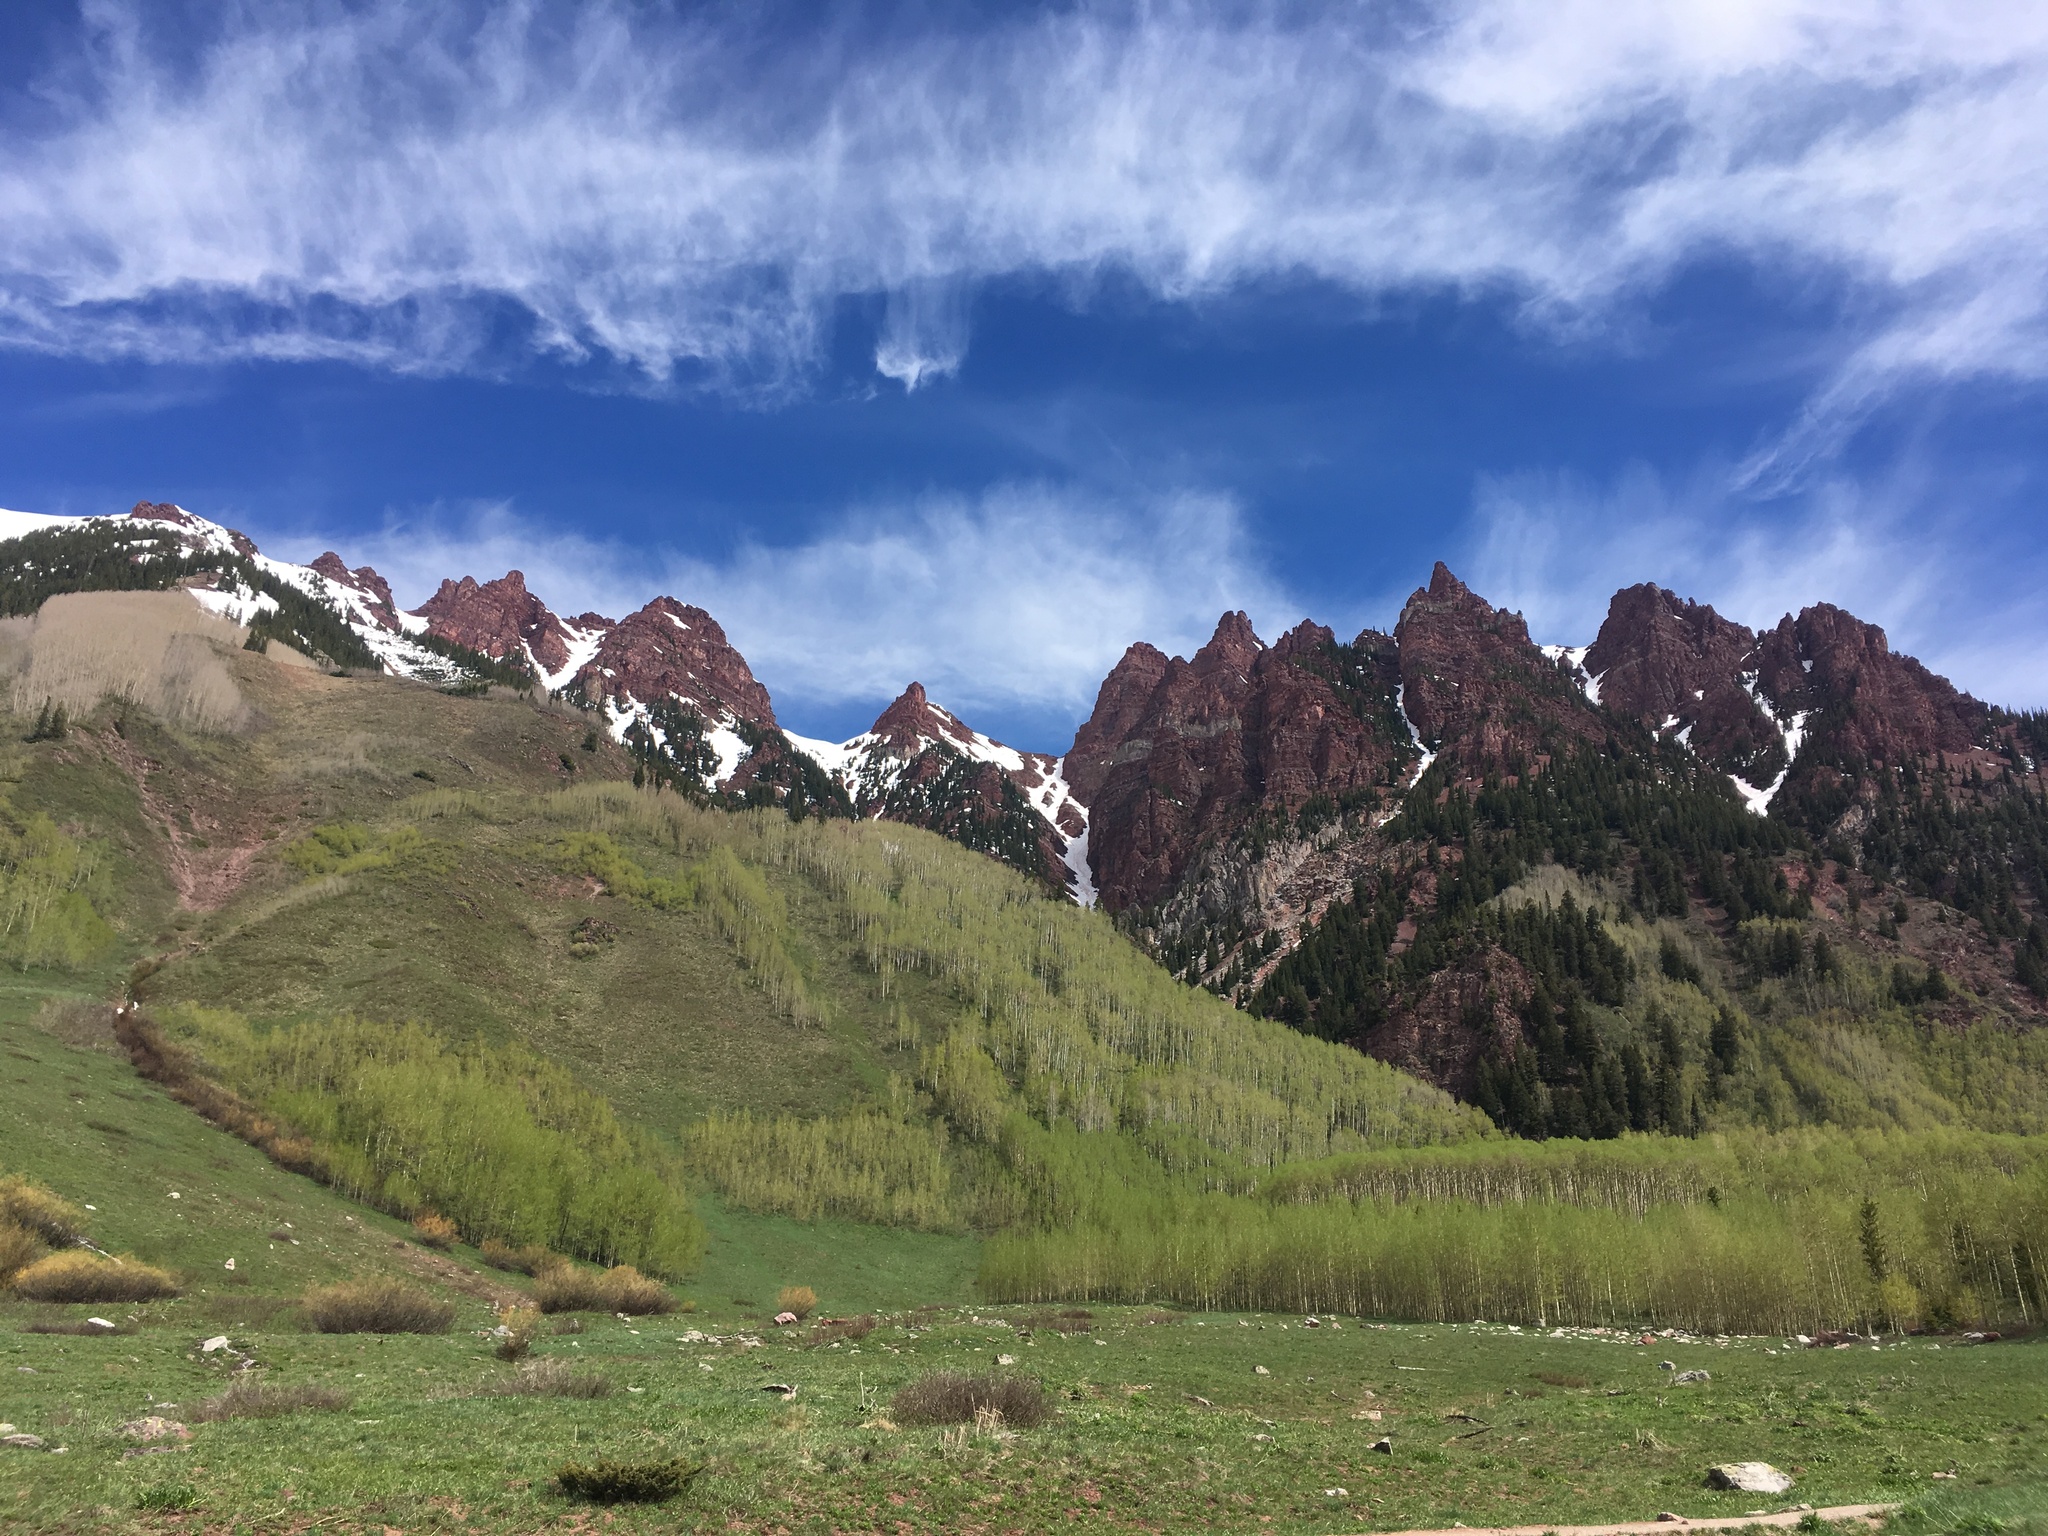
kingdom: Plantae
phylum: Tracheophyta
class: Magnoliopsida
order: Malpighiales
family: Salicaceae
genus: Populus
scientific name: Populus tremuloides
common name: Quaking aspen
